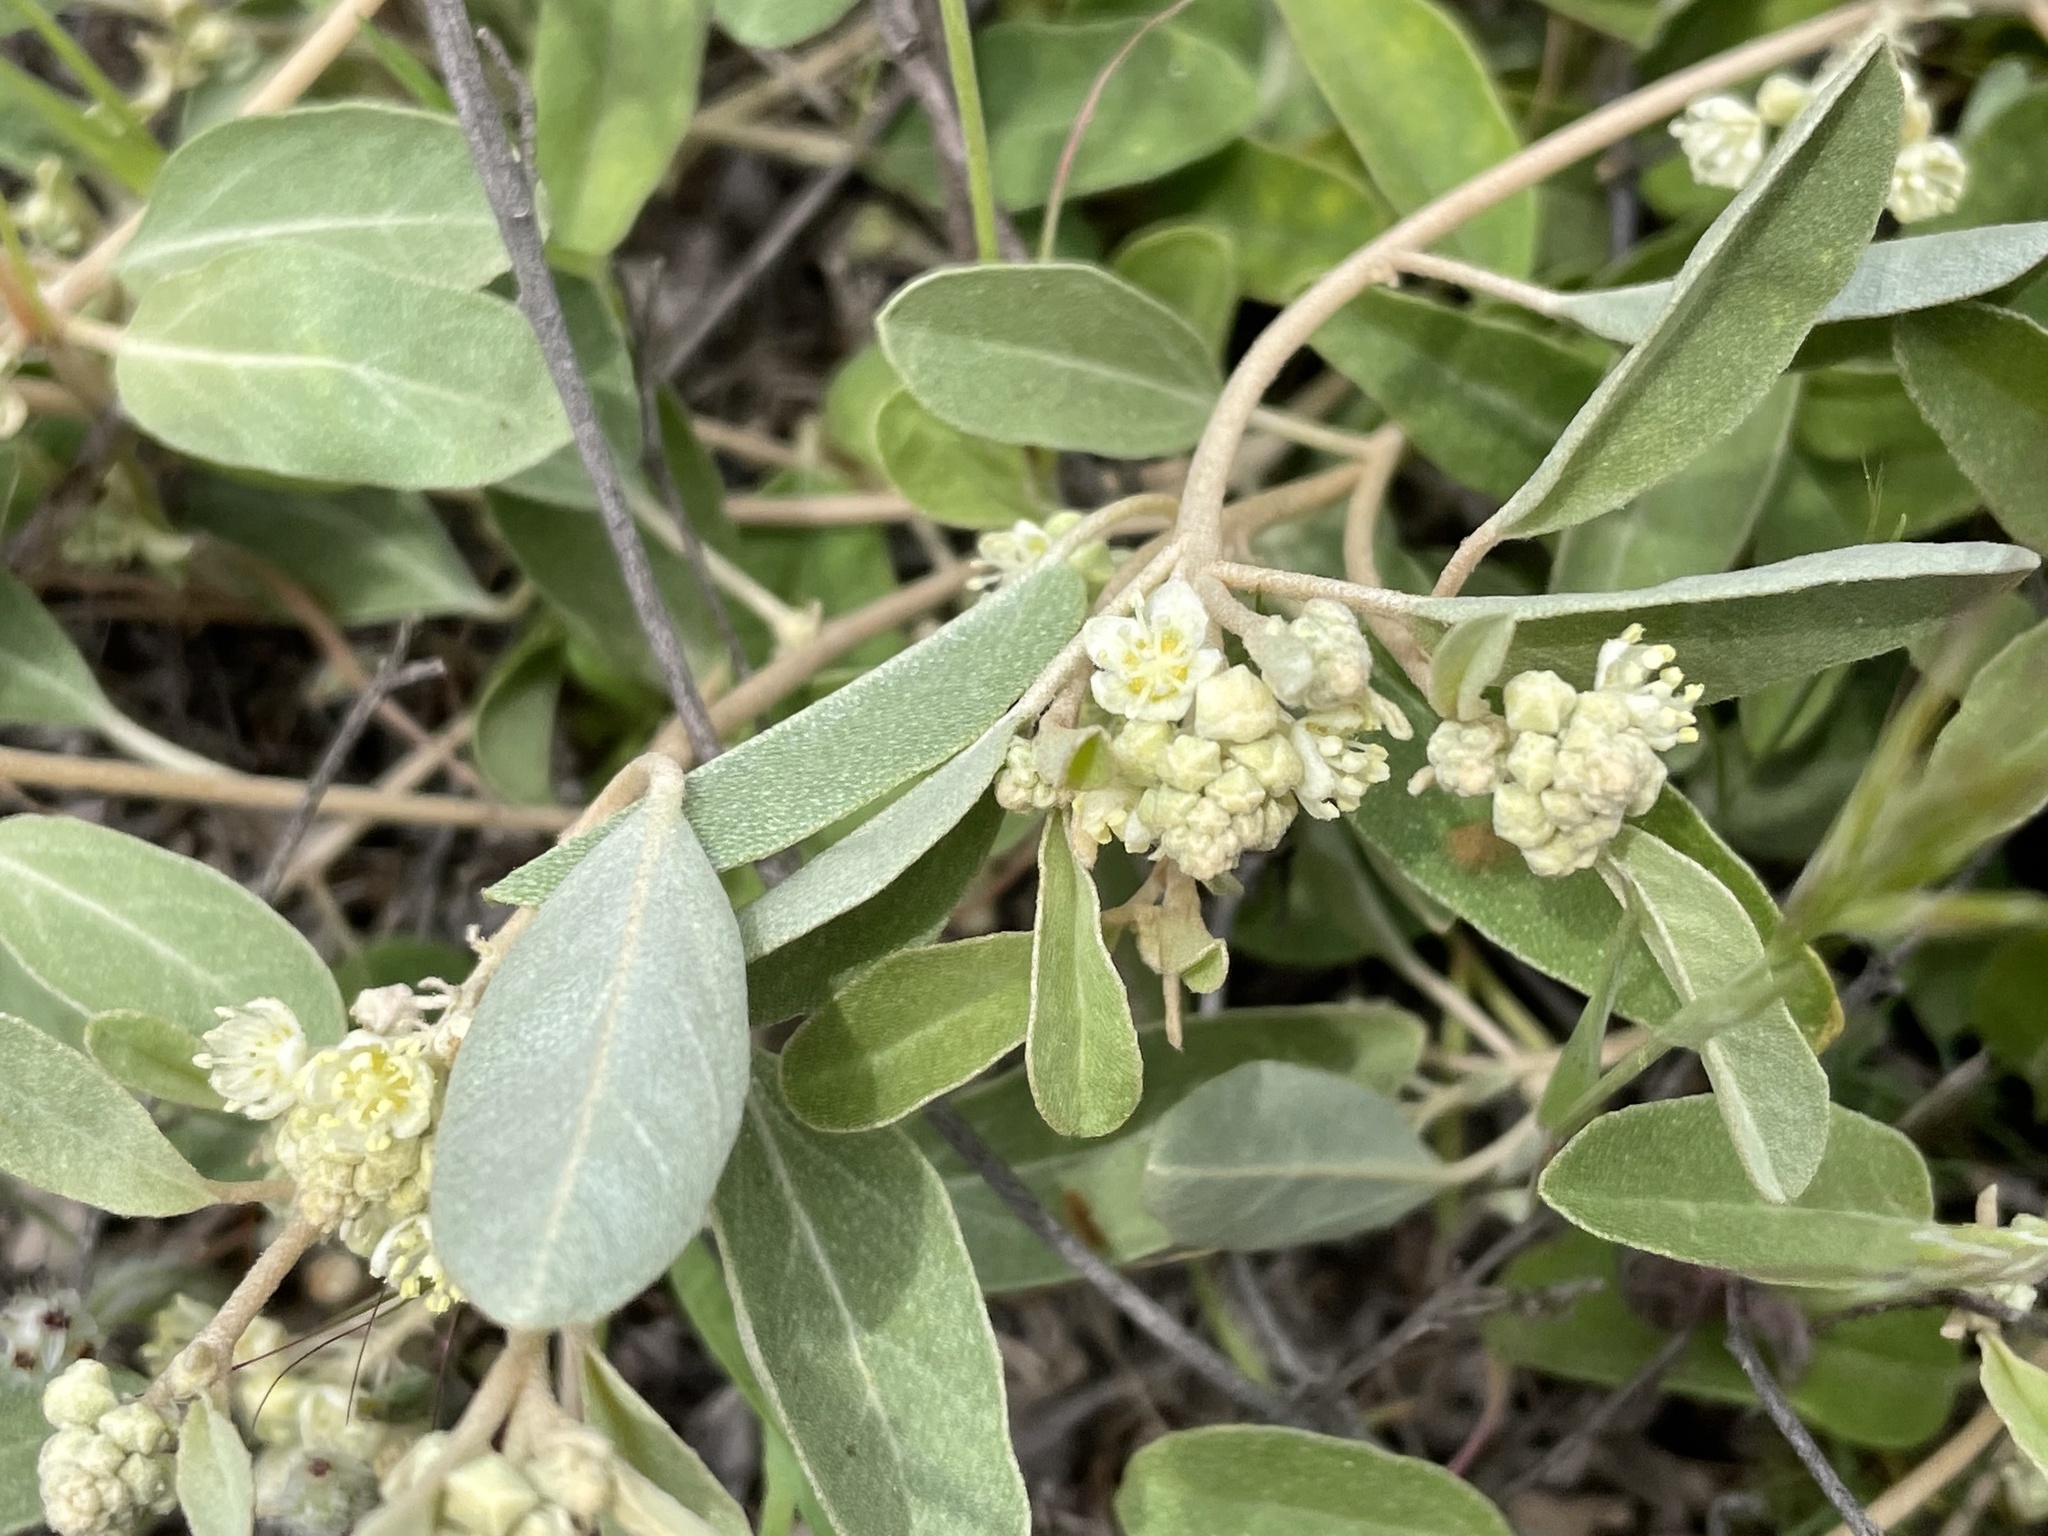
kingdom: Plantae
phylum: Tracheophyta
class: Magnoliopsida
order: Malpighiales
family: Euphorbiaceae
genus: Croton
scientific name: Croton californicus
